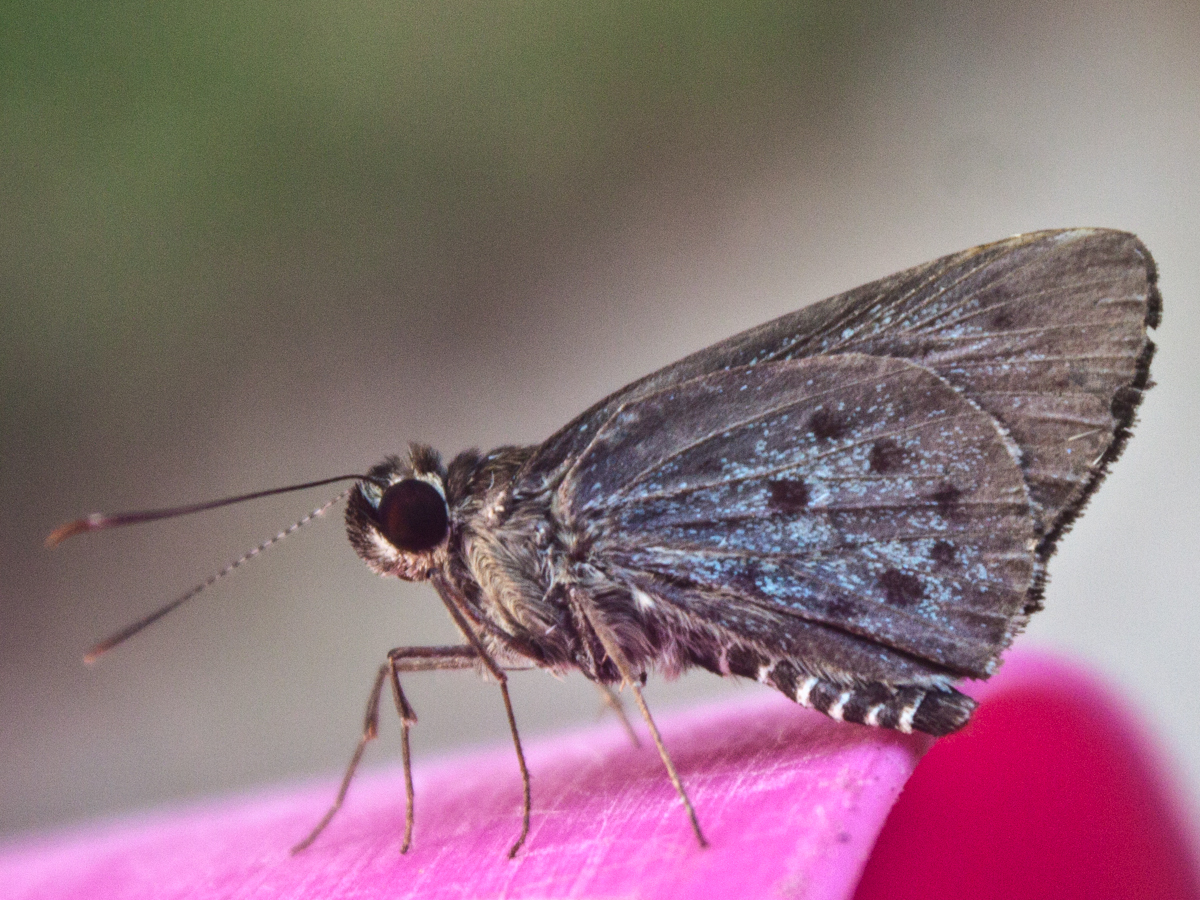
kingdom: Animalia
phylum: Arthropoda
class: Insecta
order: Lepidoptera
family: Hesperiidae
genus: Salanoemia
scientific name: Salanoemia sala
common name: Maculate lancer
